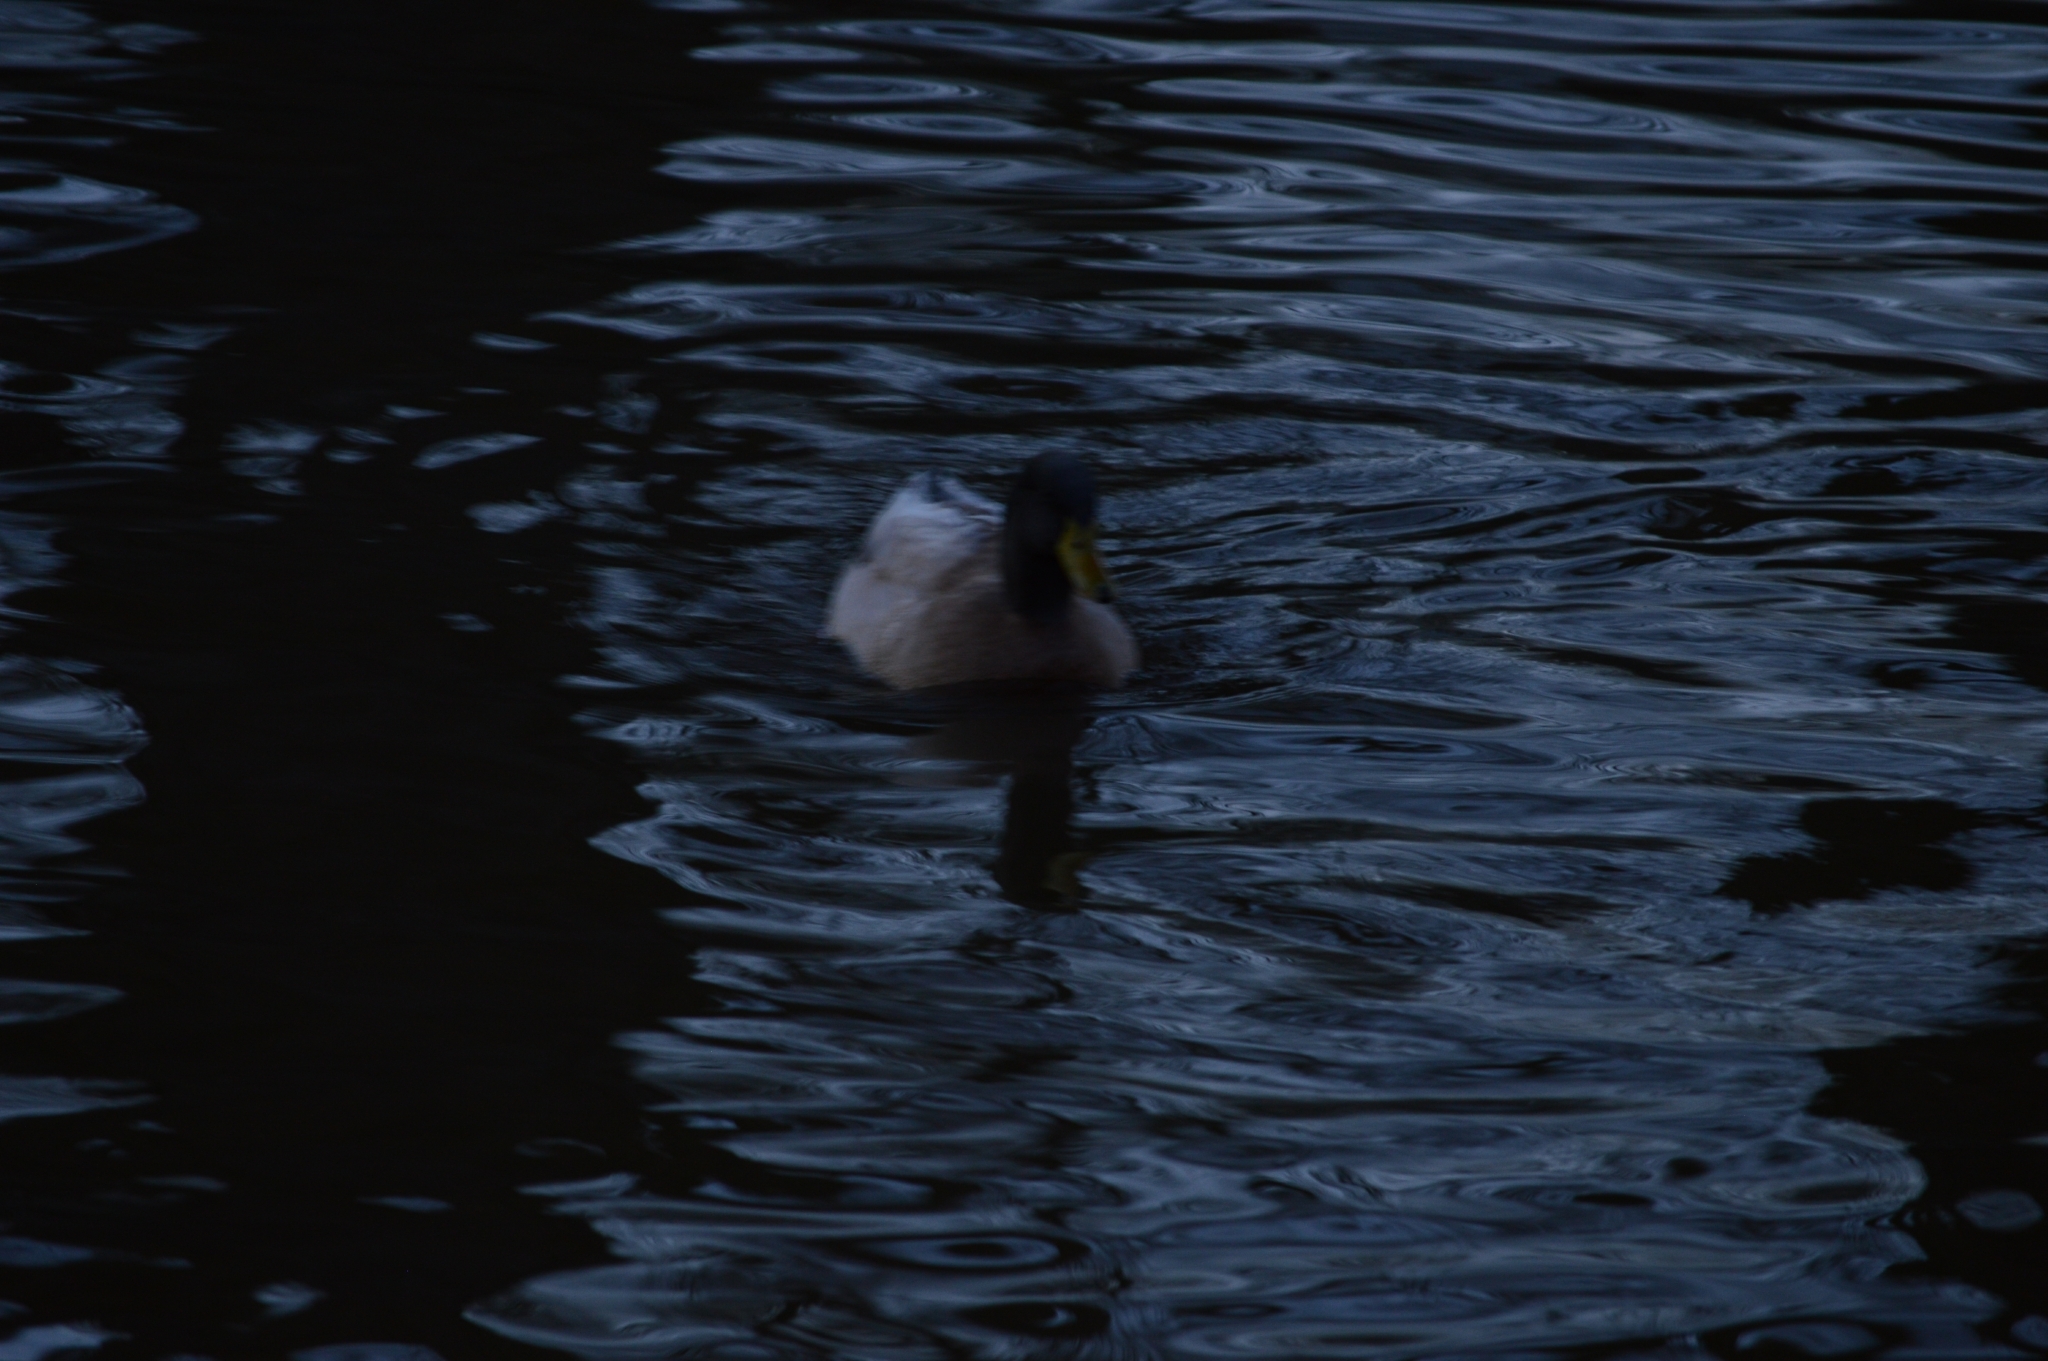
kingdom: Animalia
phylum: Chordata
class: Aves
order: Anseriformes
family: Anatidae
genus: Anas
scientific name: Anas platyrhynchos
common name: Mallard
